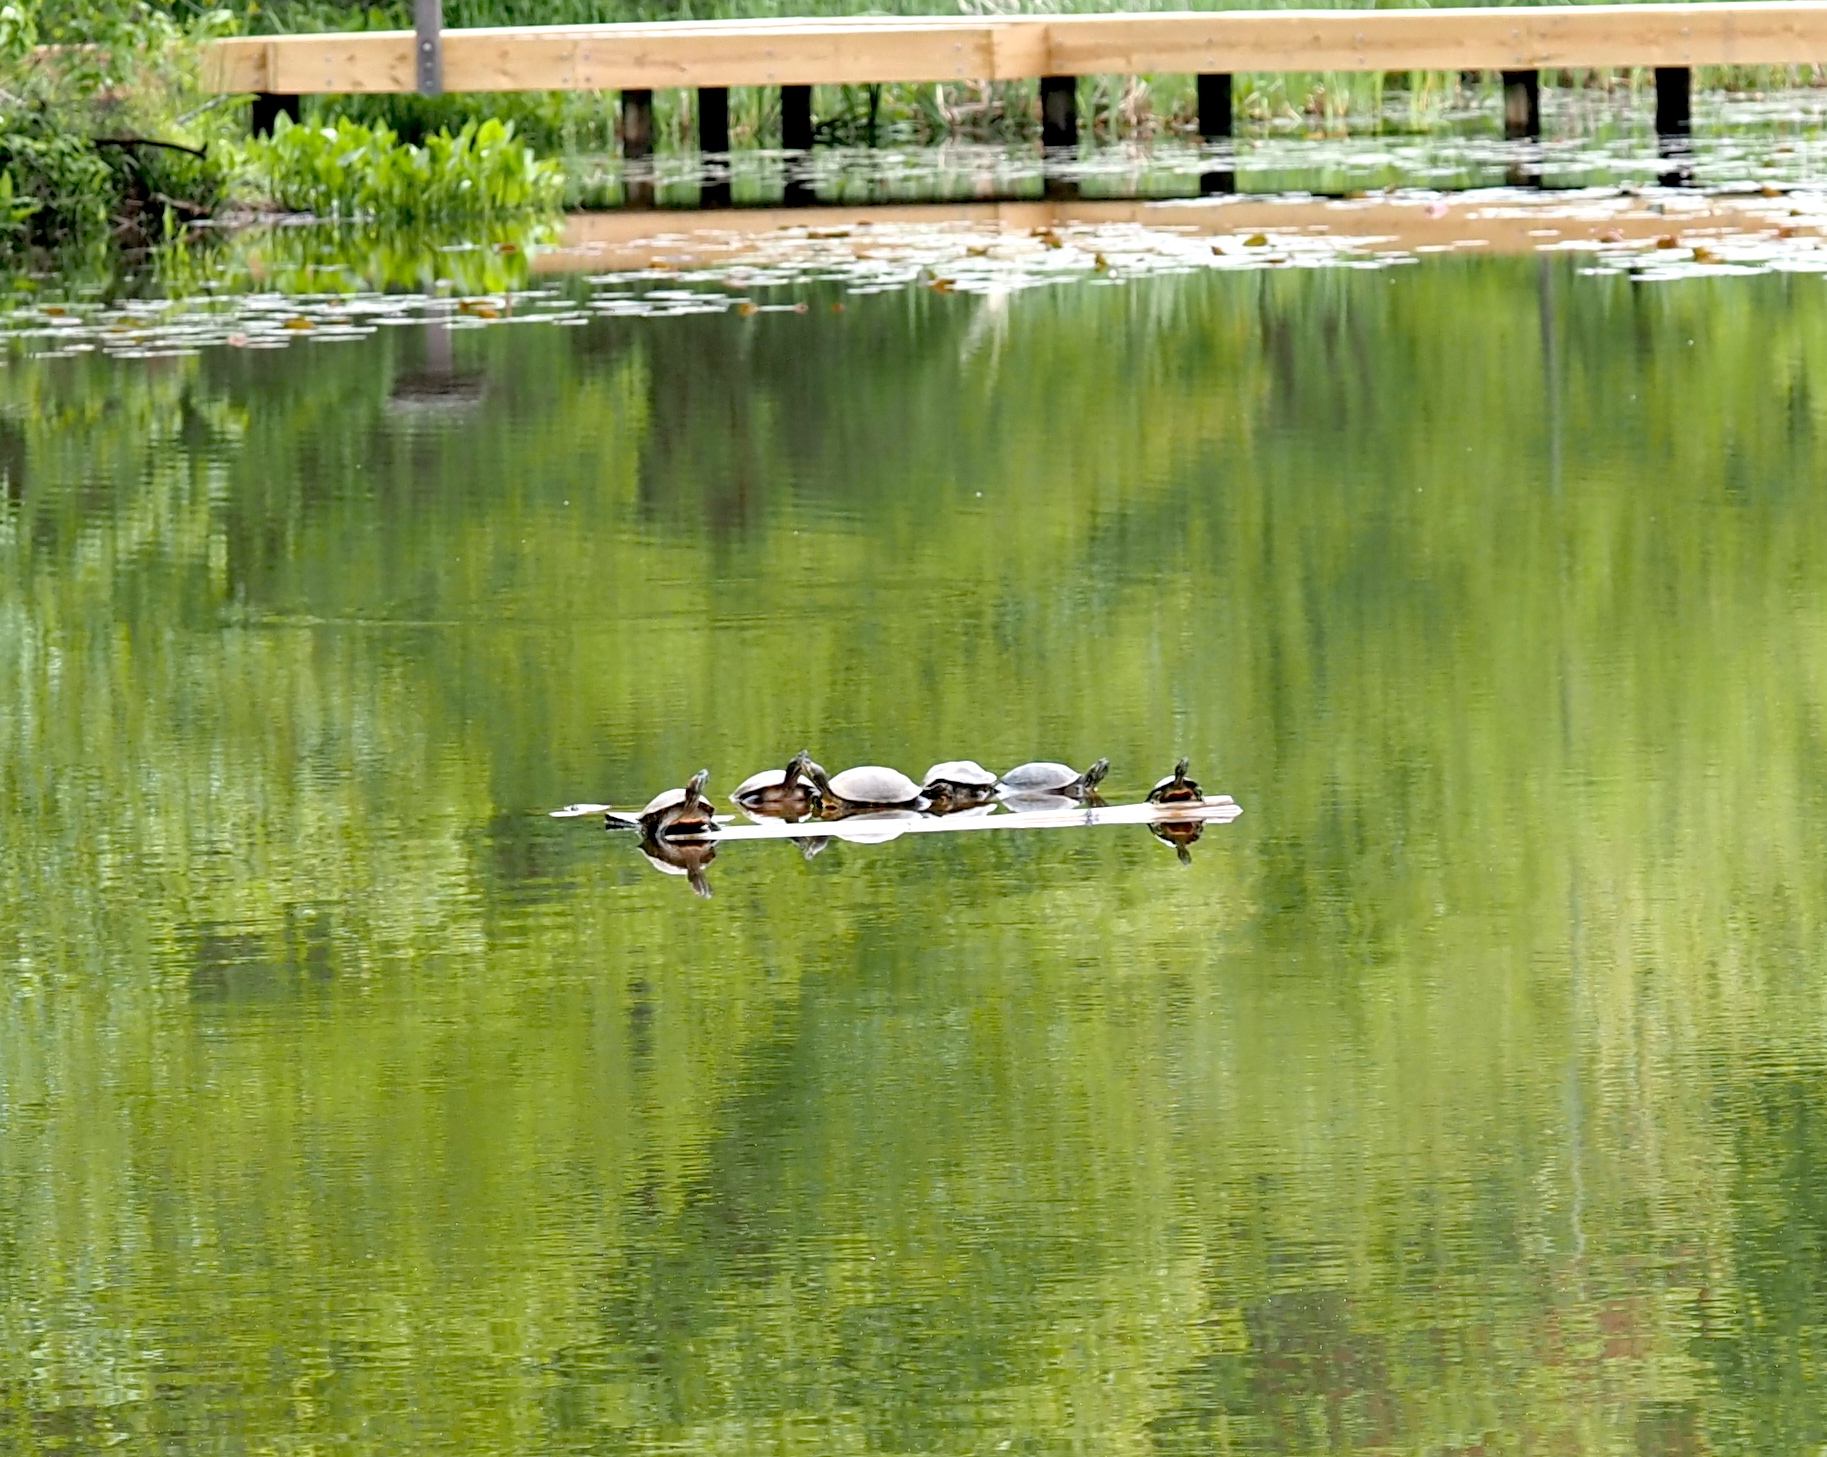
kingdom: Animalia
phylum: Chordata
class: Testudines
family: Emydidae
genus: Trachemys
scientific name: Trachemys scripta
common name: Slider
